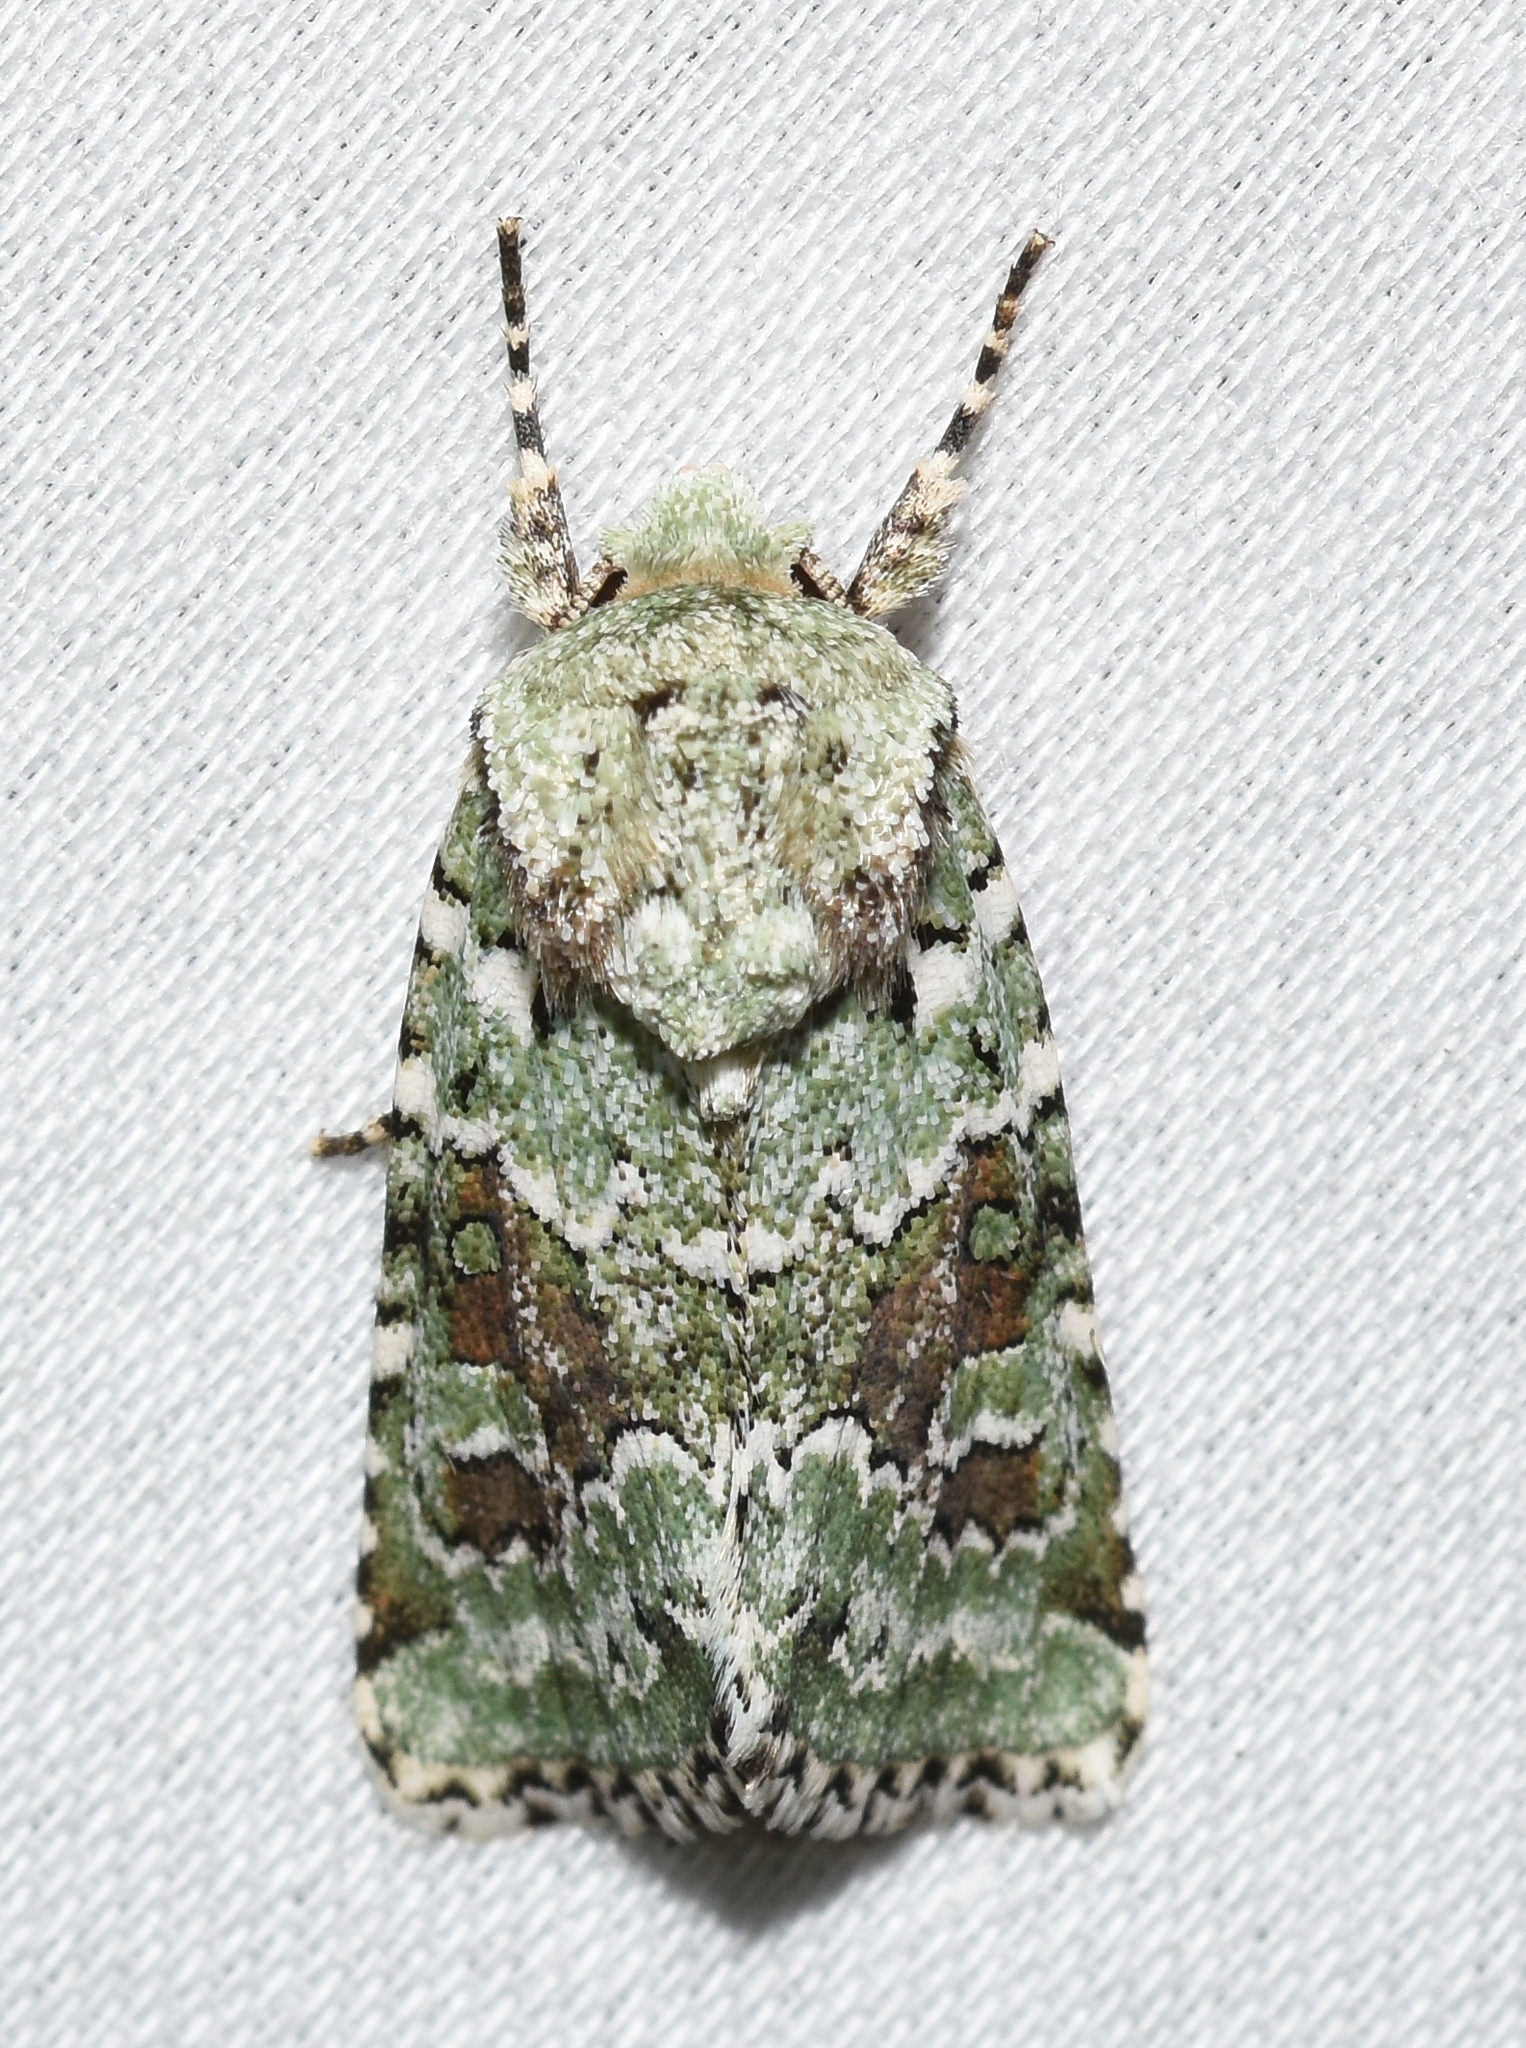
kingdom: Animalia
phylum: Arthropoda
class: Insecta
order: Lepidoptera
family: Noctuidae
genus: Lacinipolia
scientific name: Lacinipolia laudabilis
